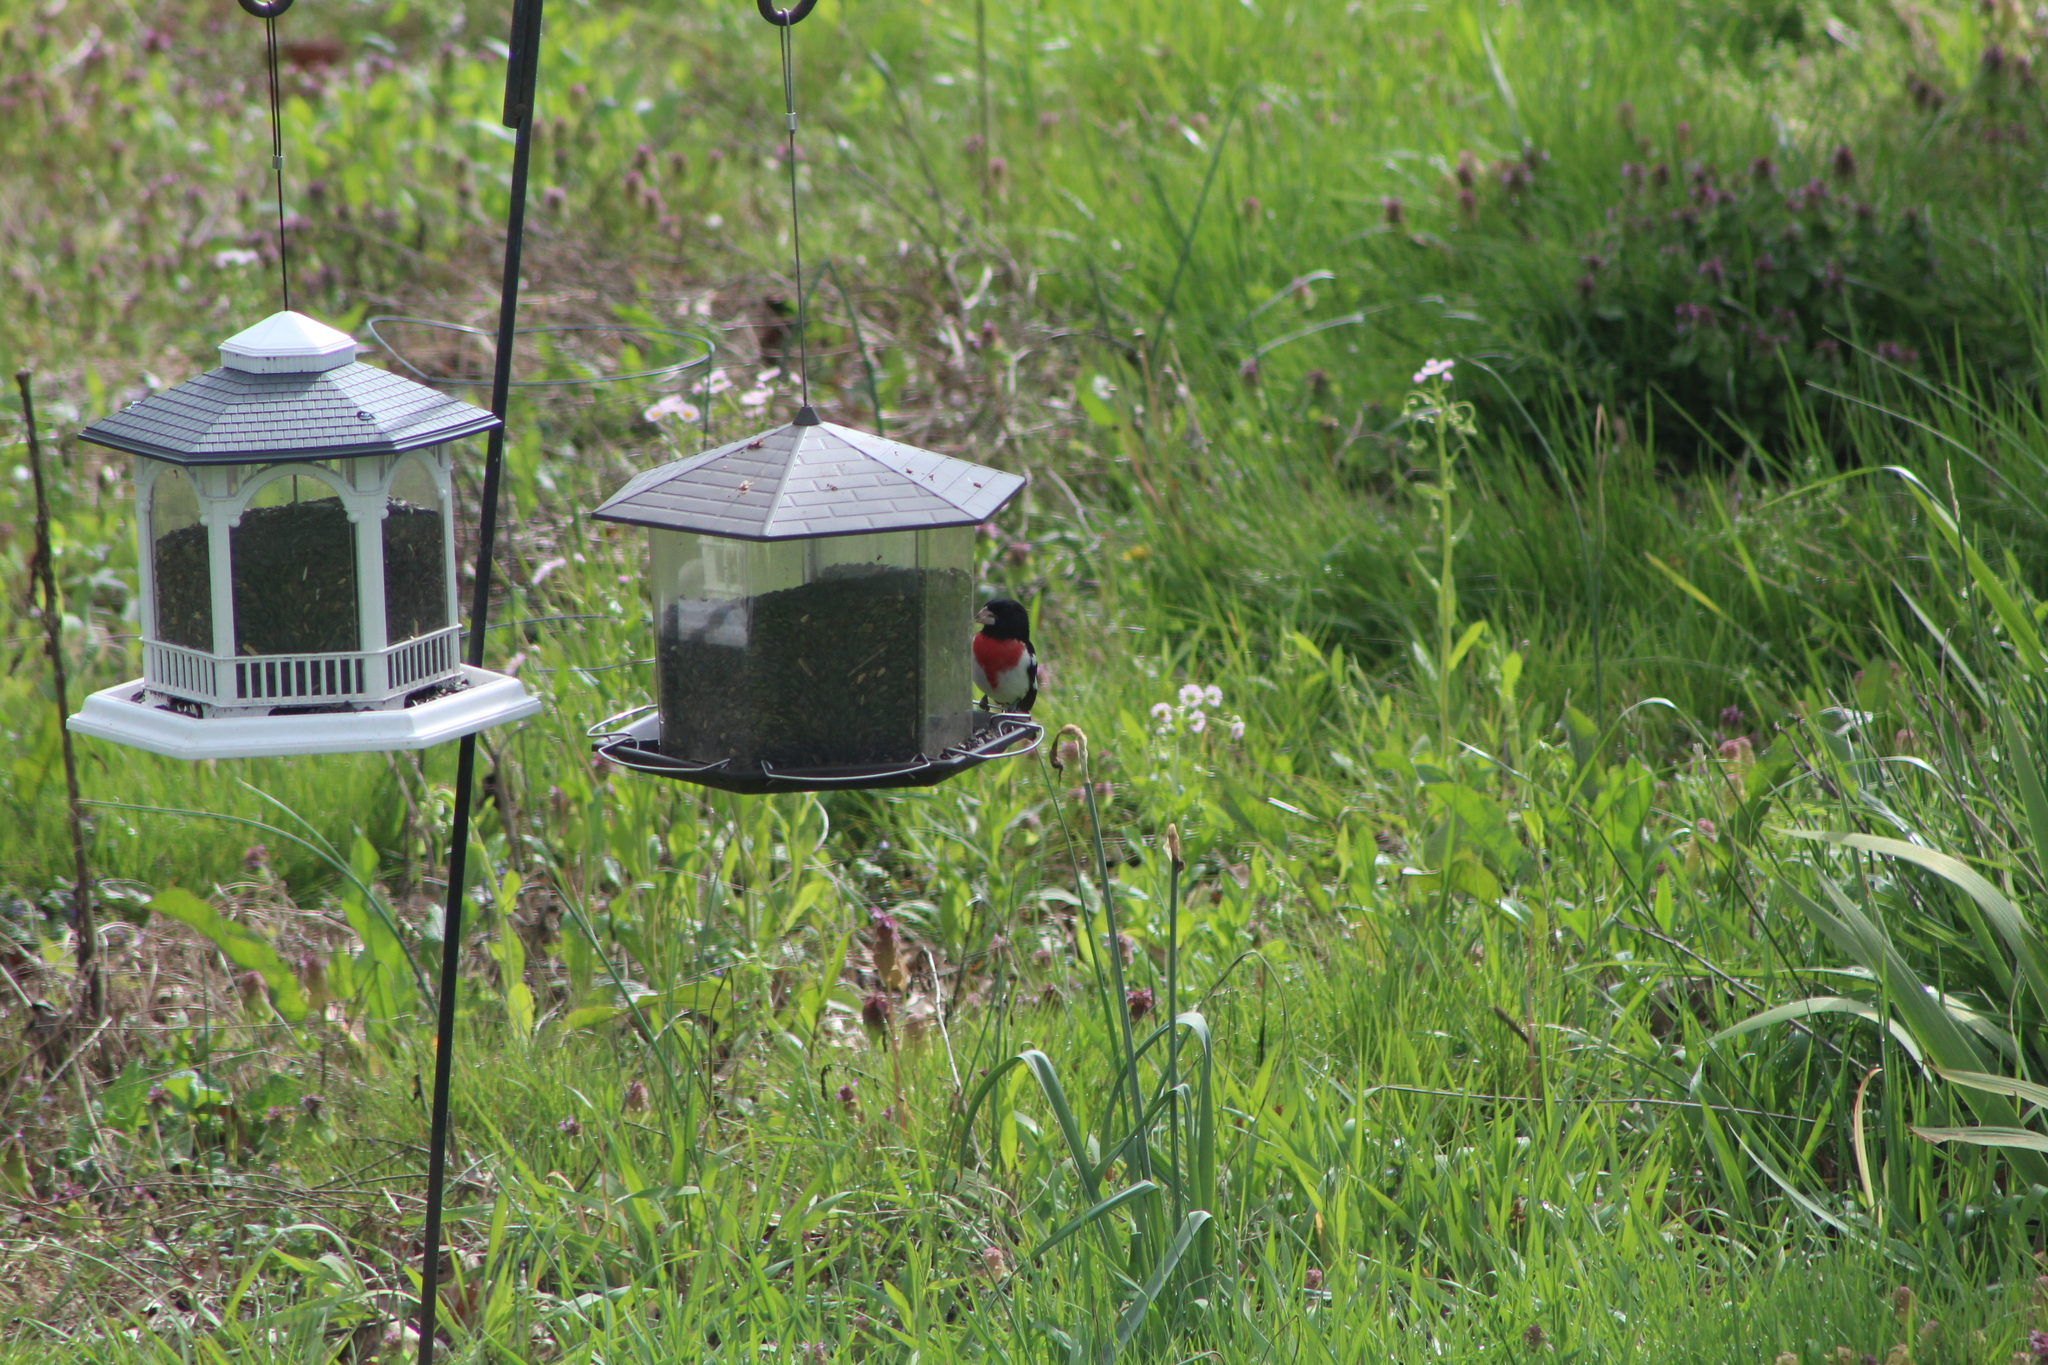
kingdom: Animalia
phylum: Chordata
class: Aves
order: Passeriformes
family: Cardinalidae
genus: Pheucticus
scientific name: Pheucticus ludovicianus
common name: Rose-breasted grosbeak
